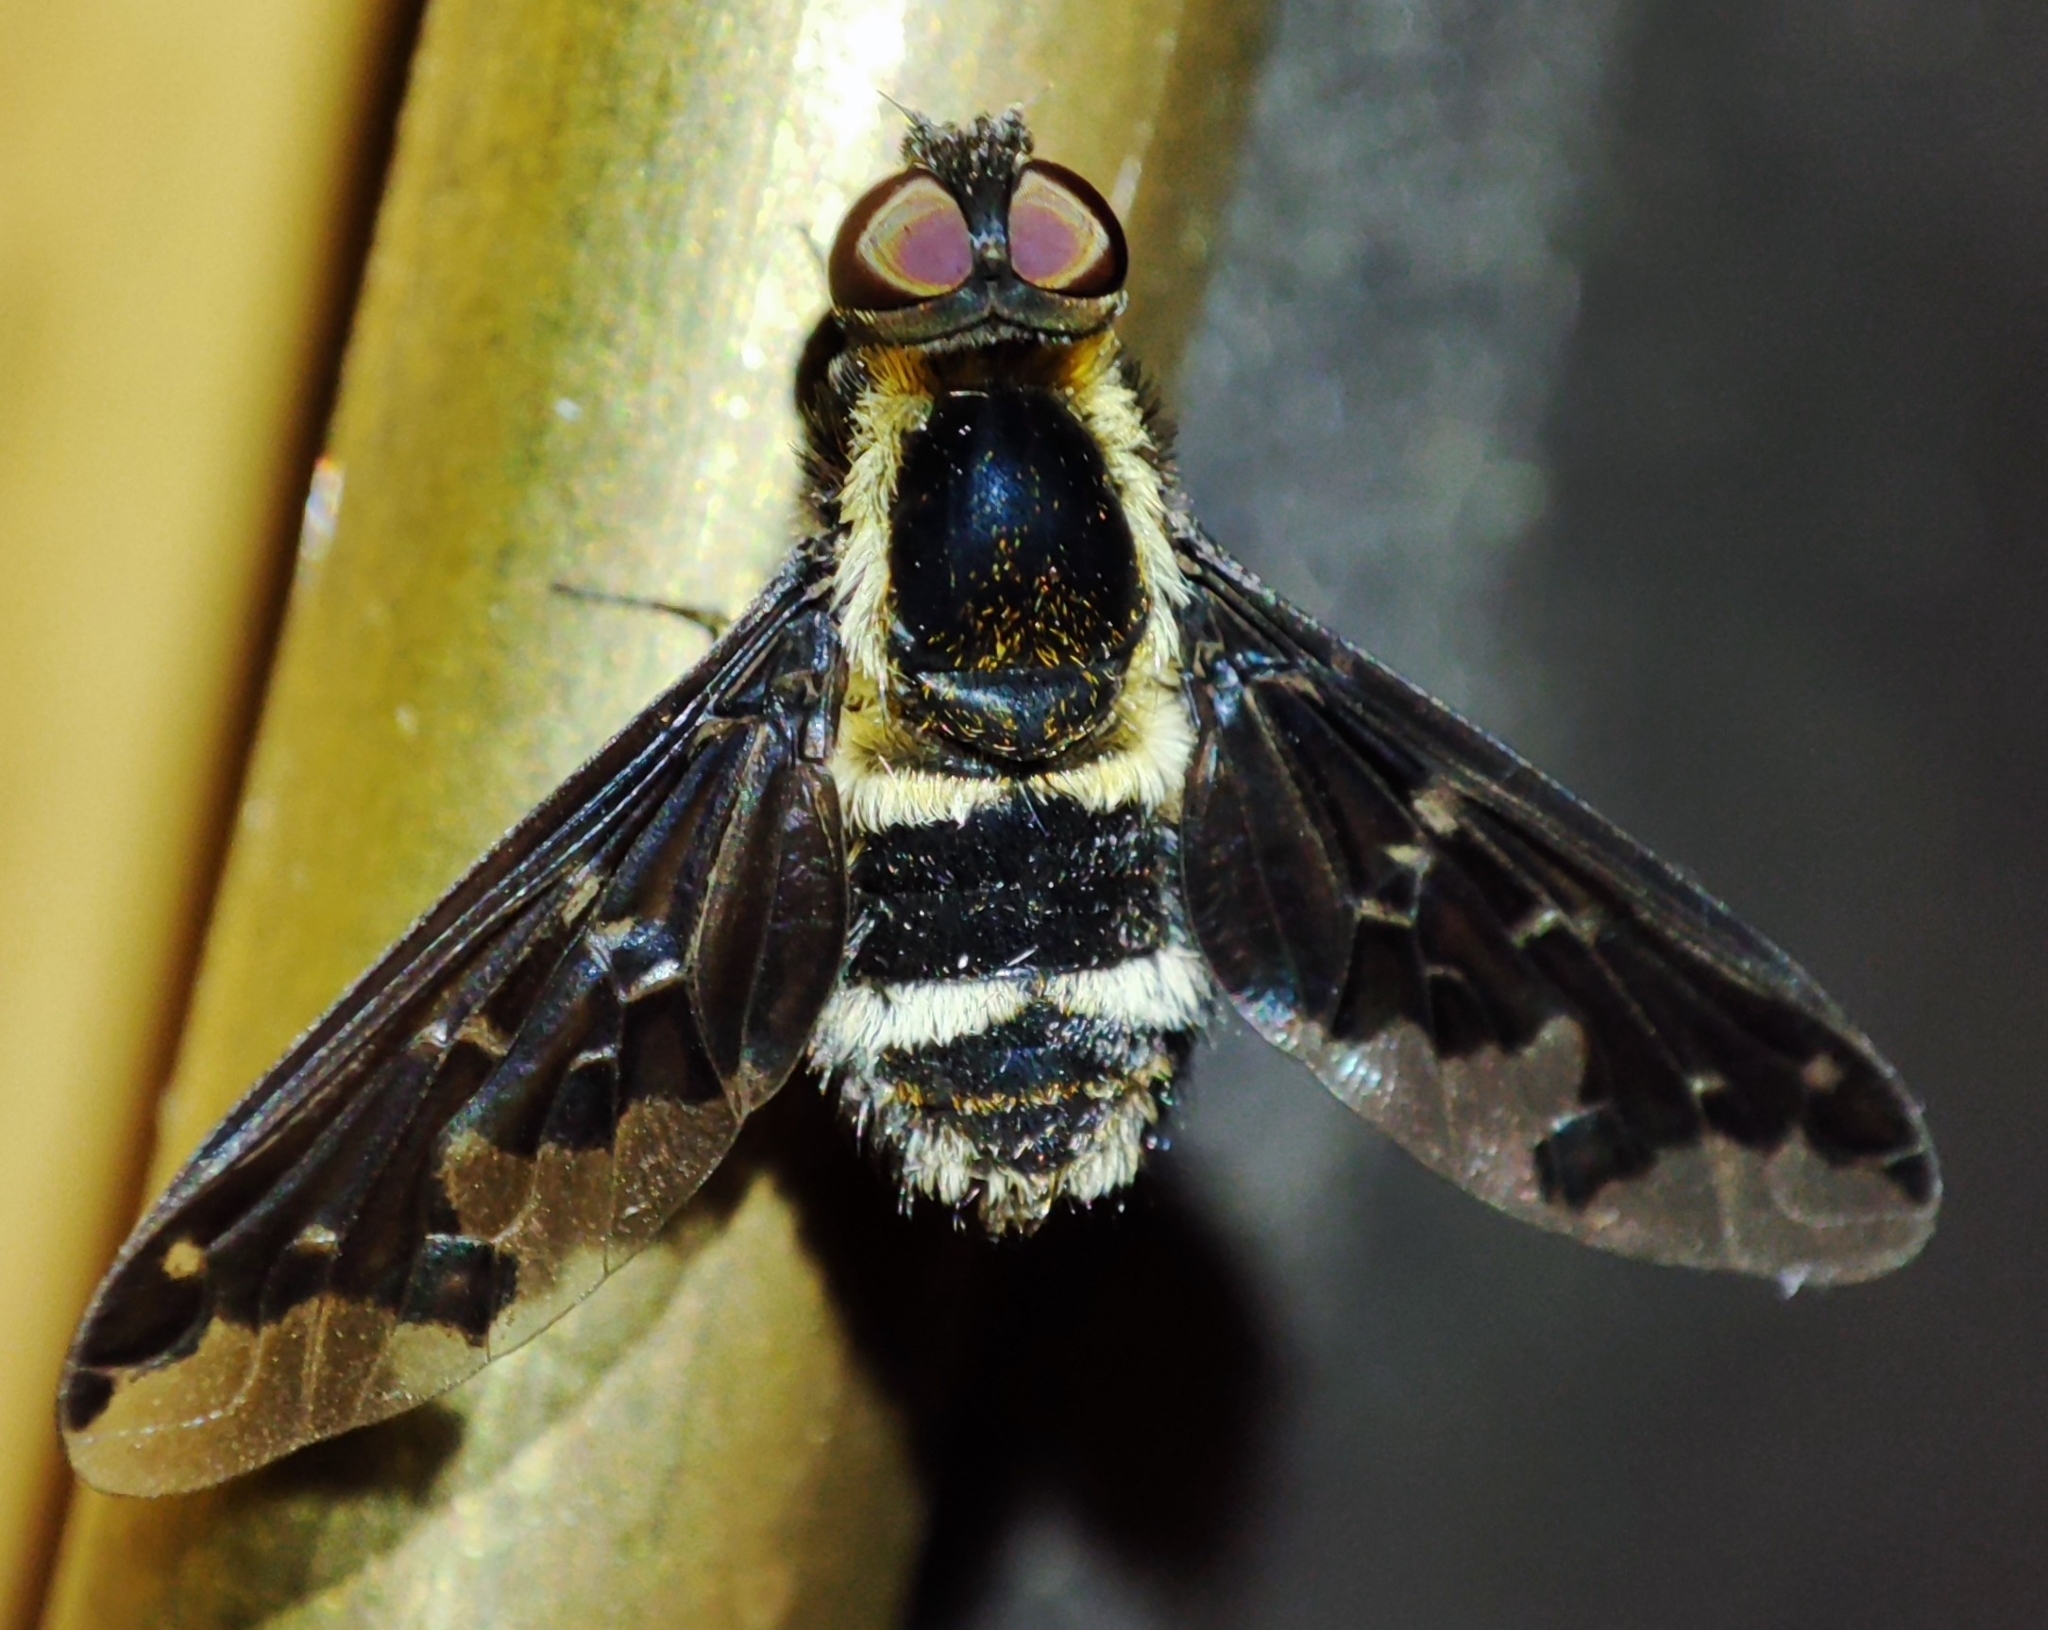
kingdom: Animalia
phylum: Arthropoda
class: Insecta
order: Diptera
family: Bombyliidae
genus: Hemipenthes
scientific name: Hemipenthes maura
